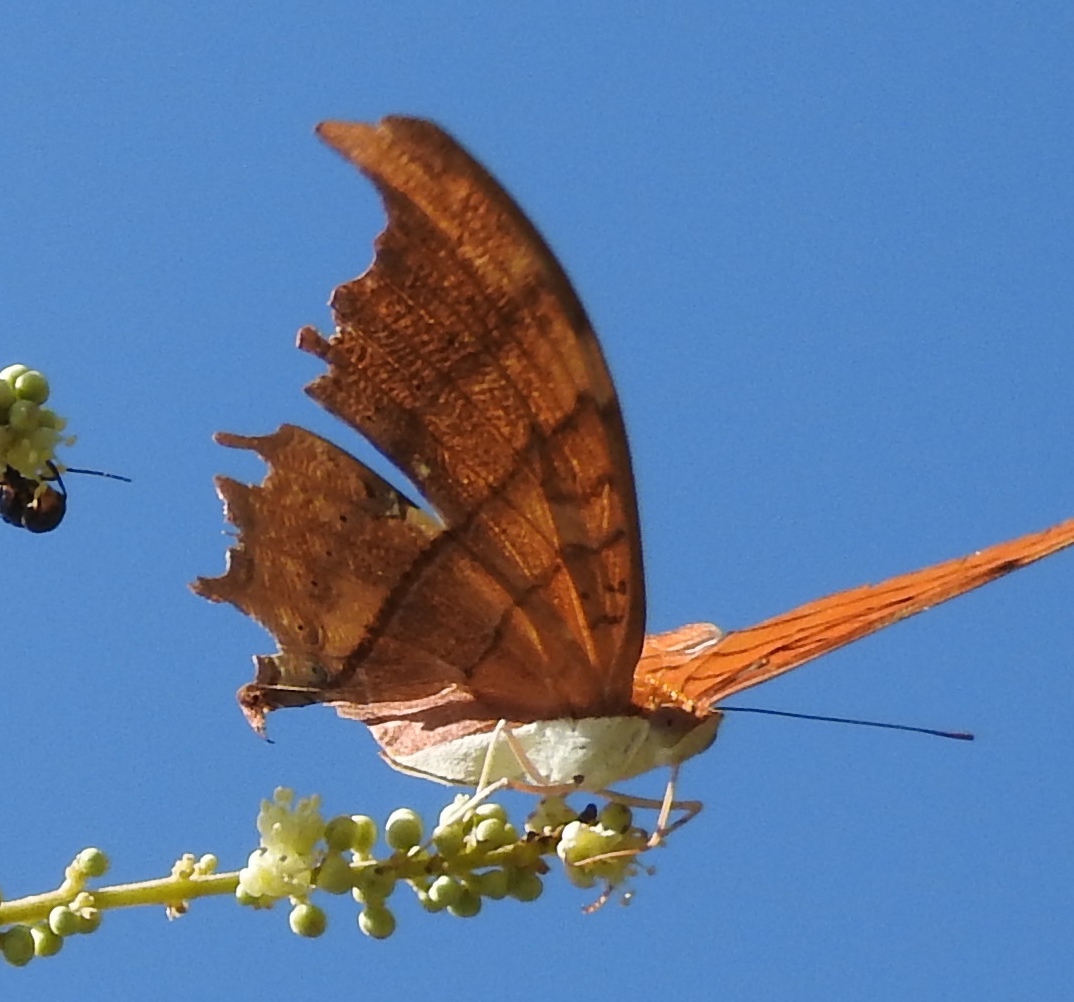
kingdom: Animalia
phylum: Arthropoda
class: Insecta
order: Lepidoptera
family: Nymphalidae
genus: Marpesia
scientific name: Marpesia petreus
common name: Red dagger wing
